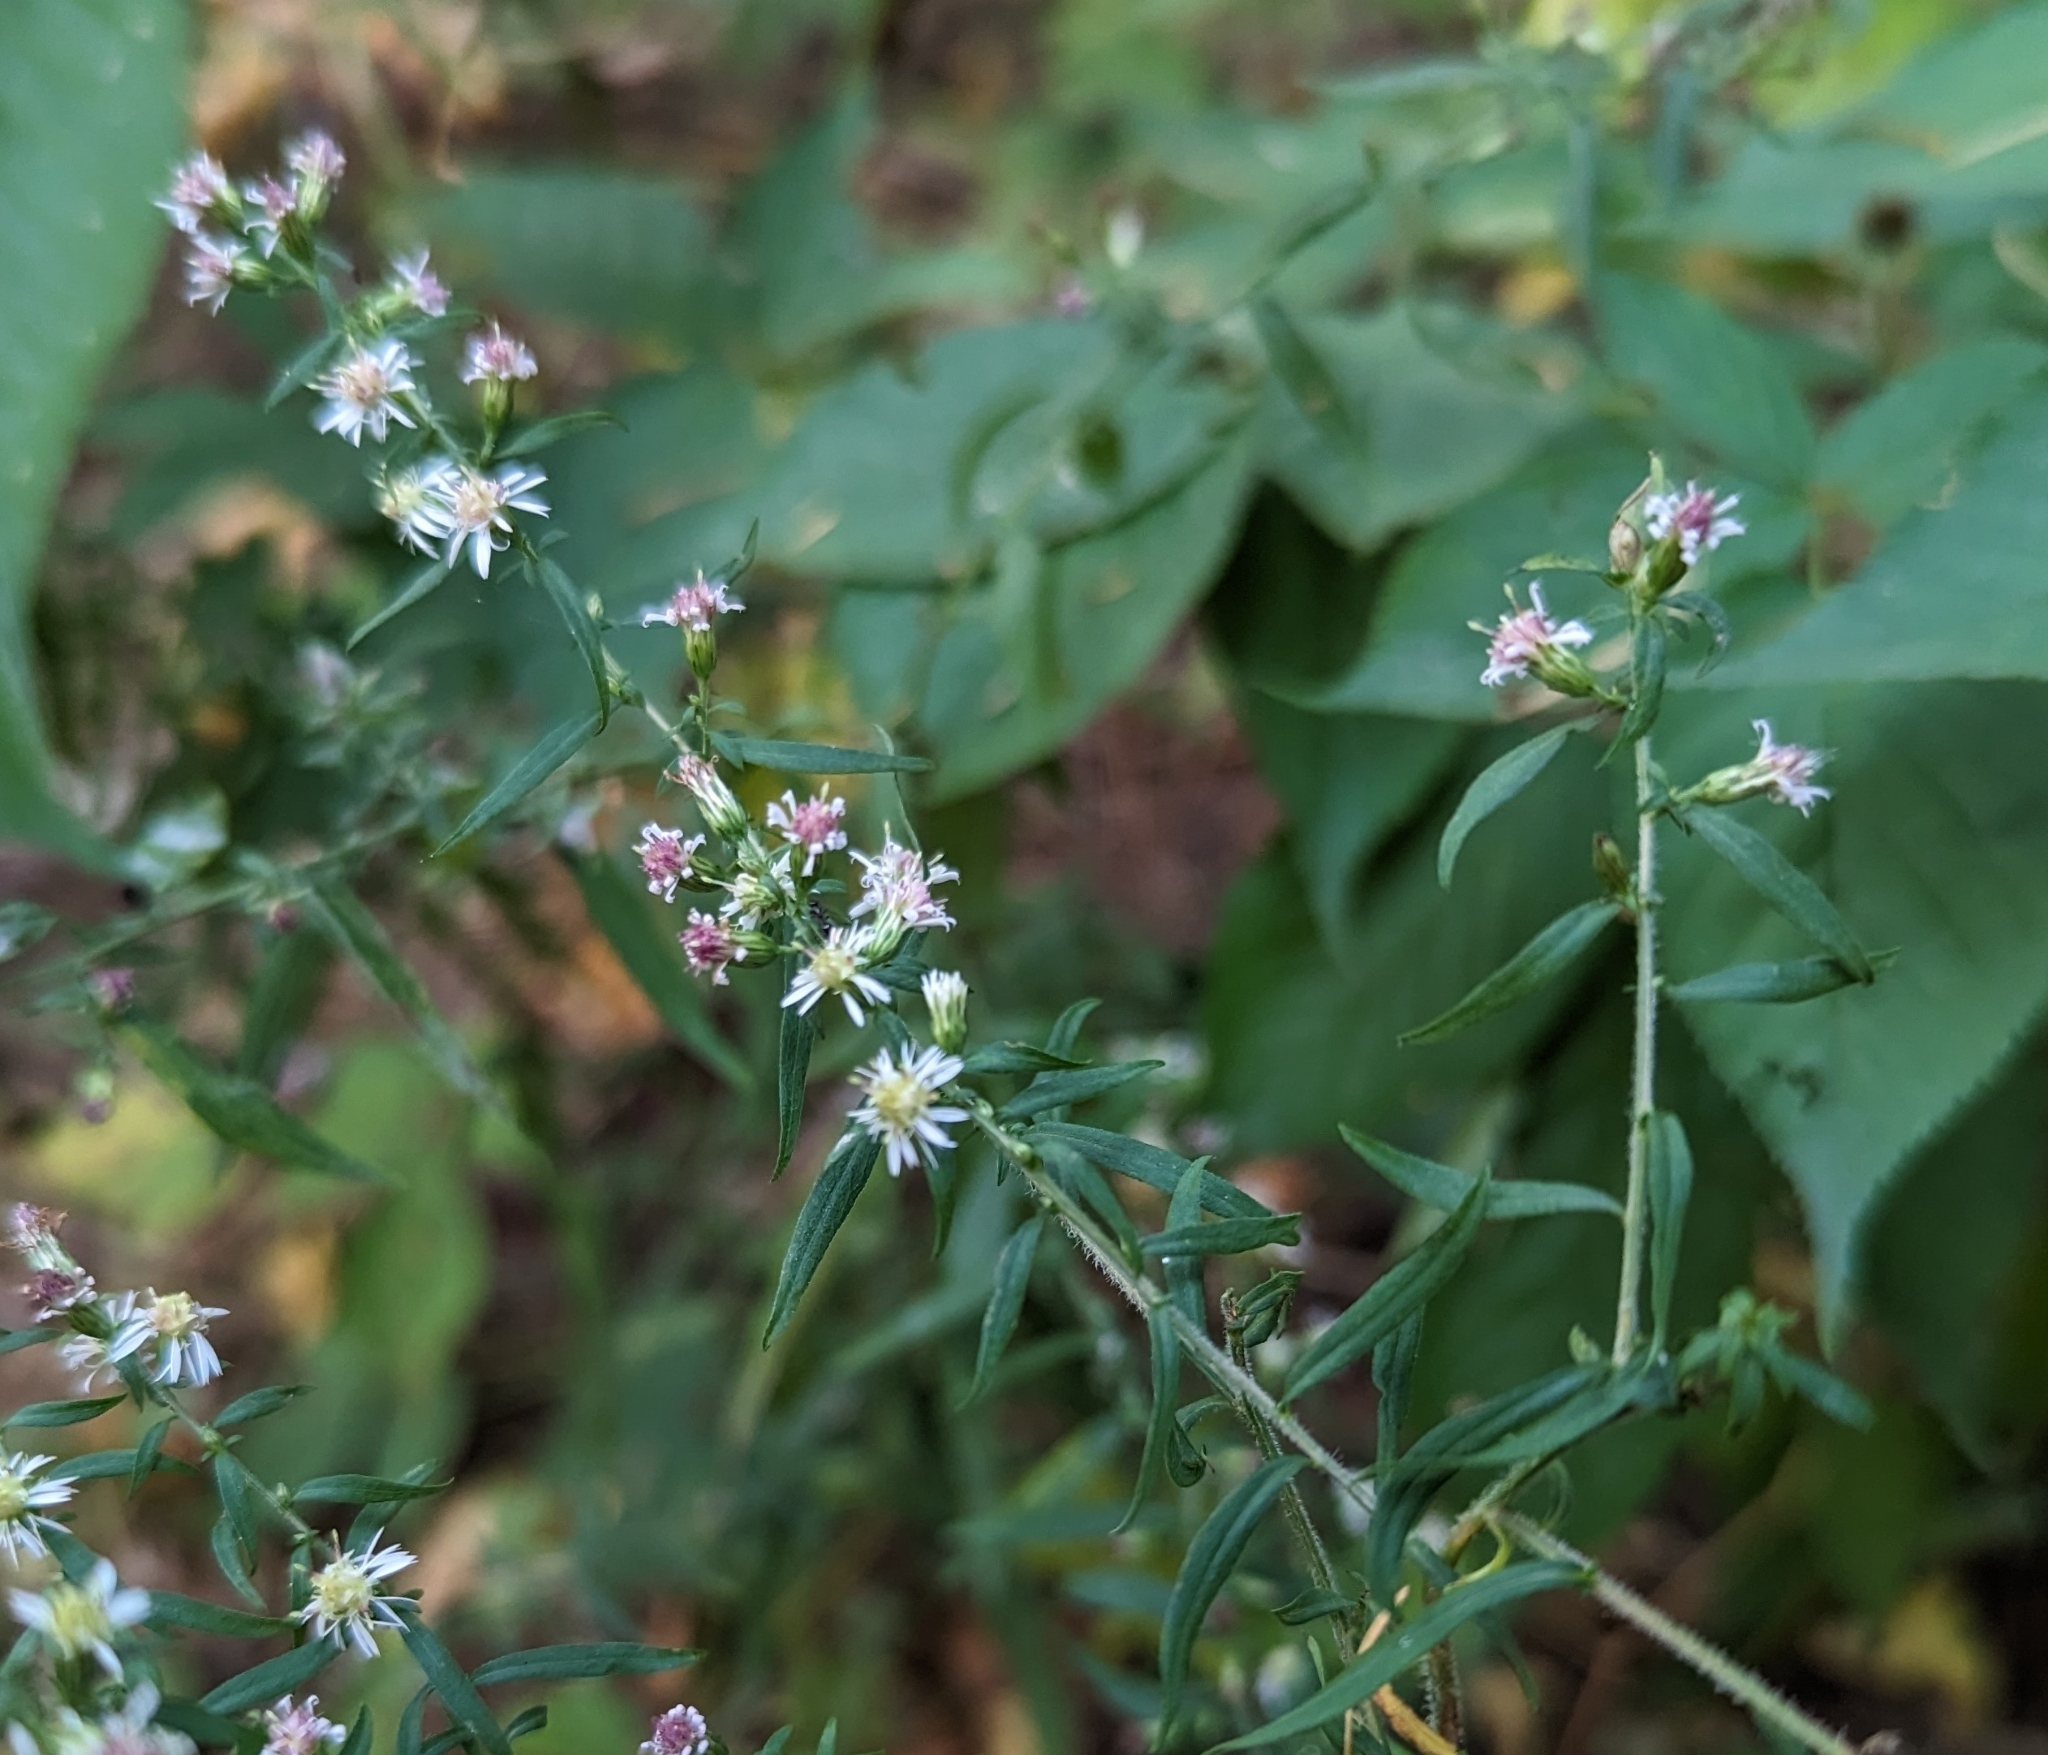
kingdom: Plantae
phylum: Tracheophyta
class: Magnoliopsida
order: Asterales
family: Asteraceae
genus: Symphyotrichum
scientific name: Symphyotrichum lateriflorum
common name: Calico aster
